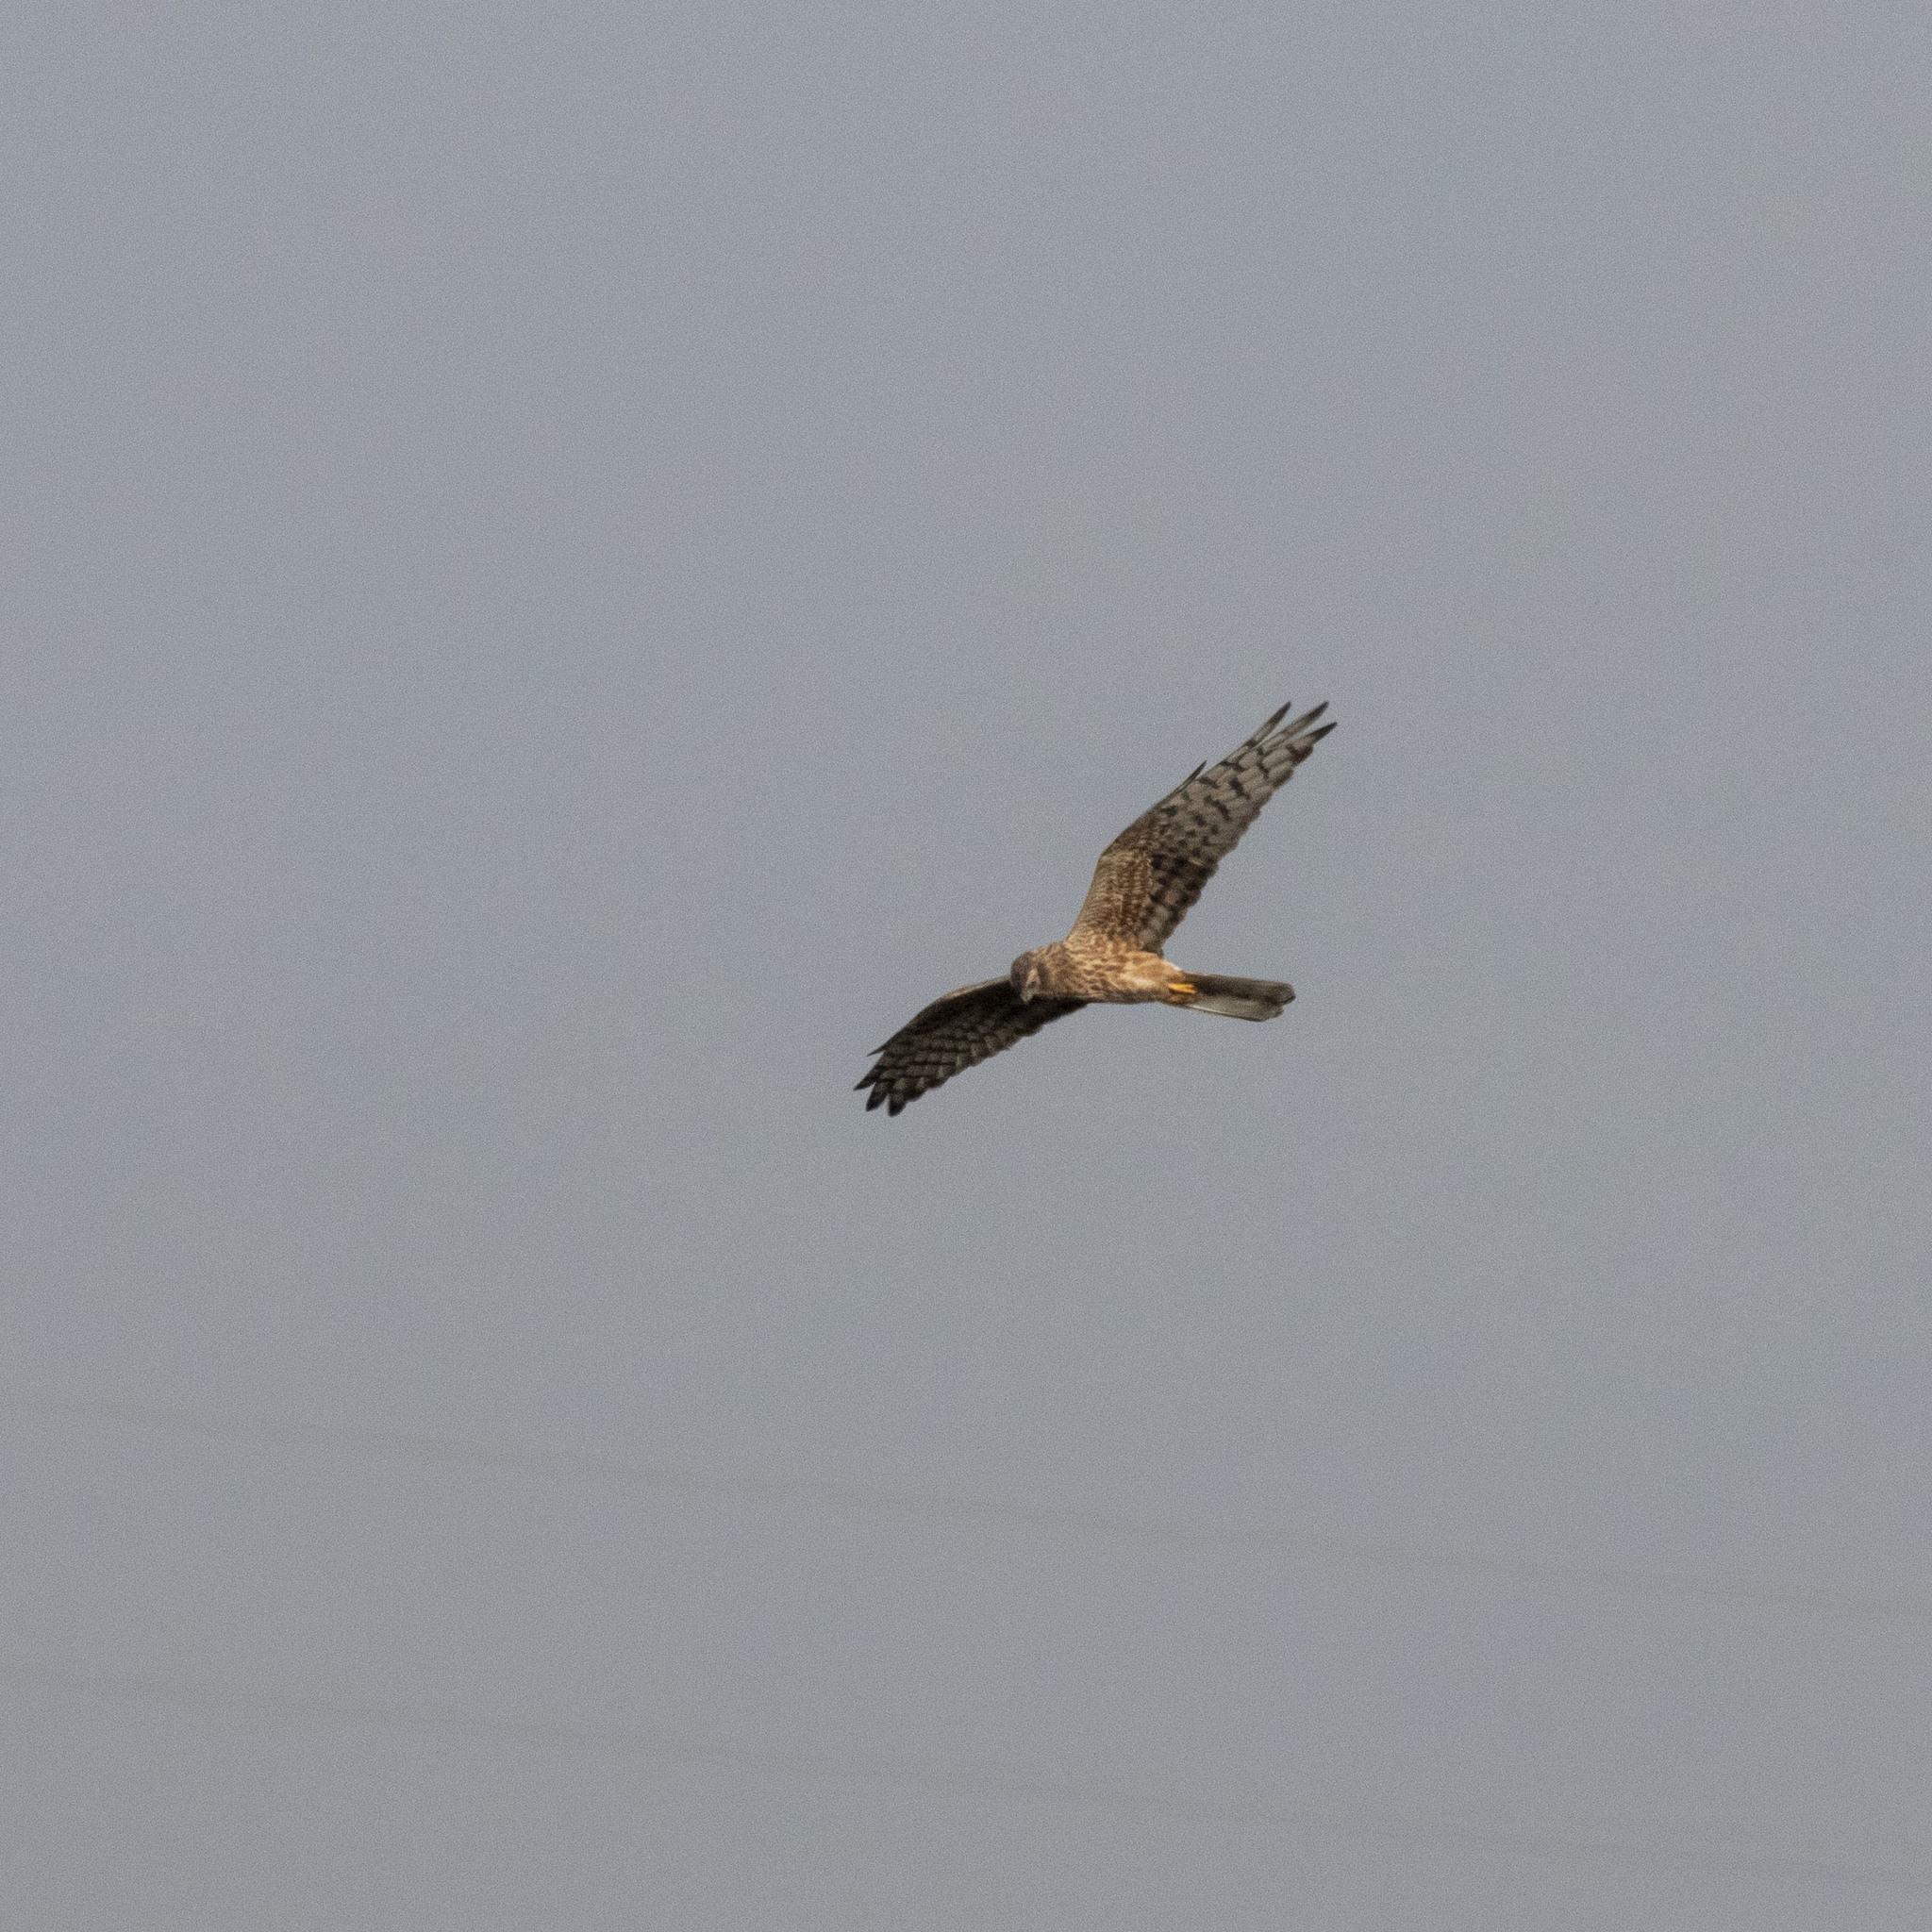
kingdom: Animalia
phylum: Chordata
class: Aves
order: Accipitriformes
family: Accipitridae
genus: Circus
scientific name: Circus pygargus
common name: Montagu's harrier
